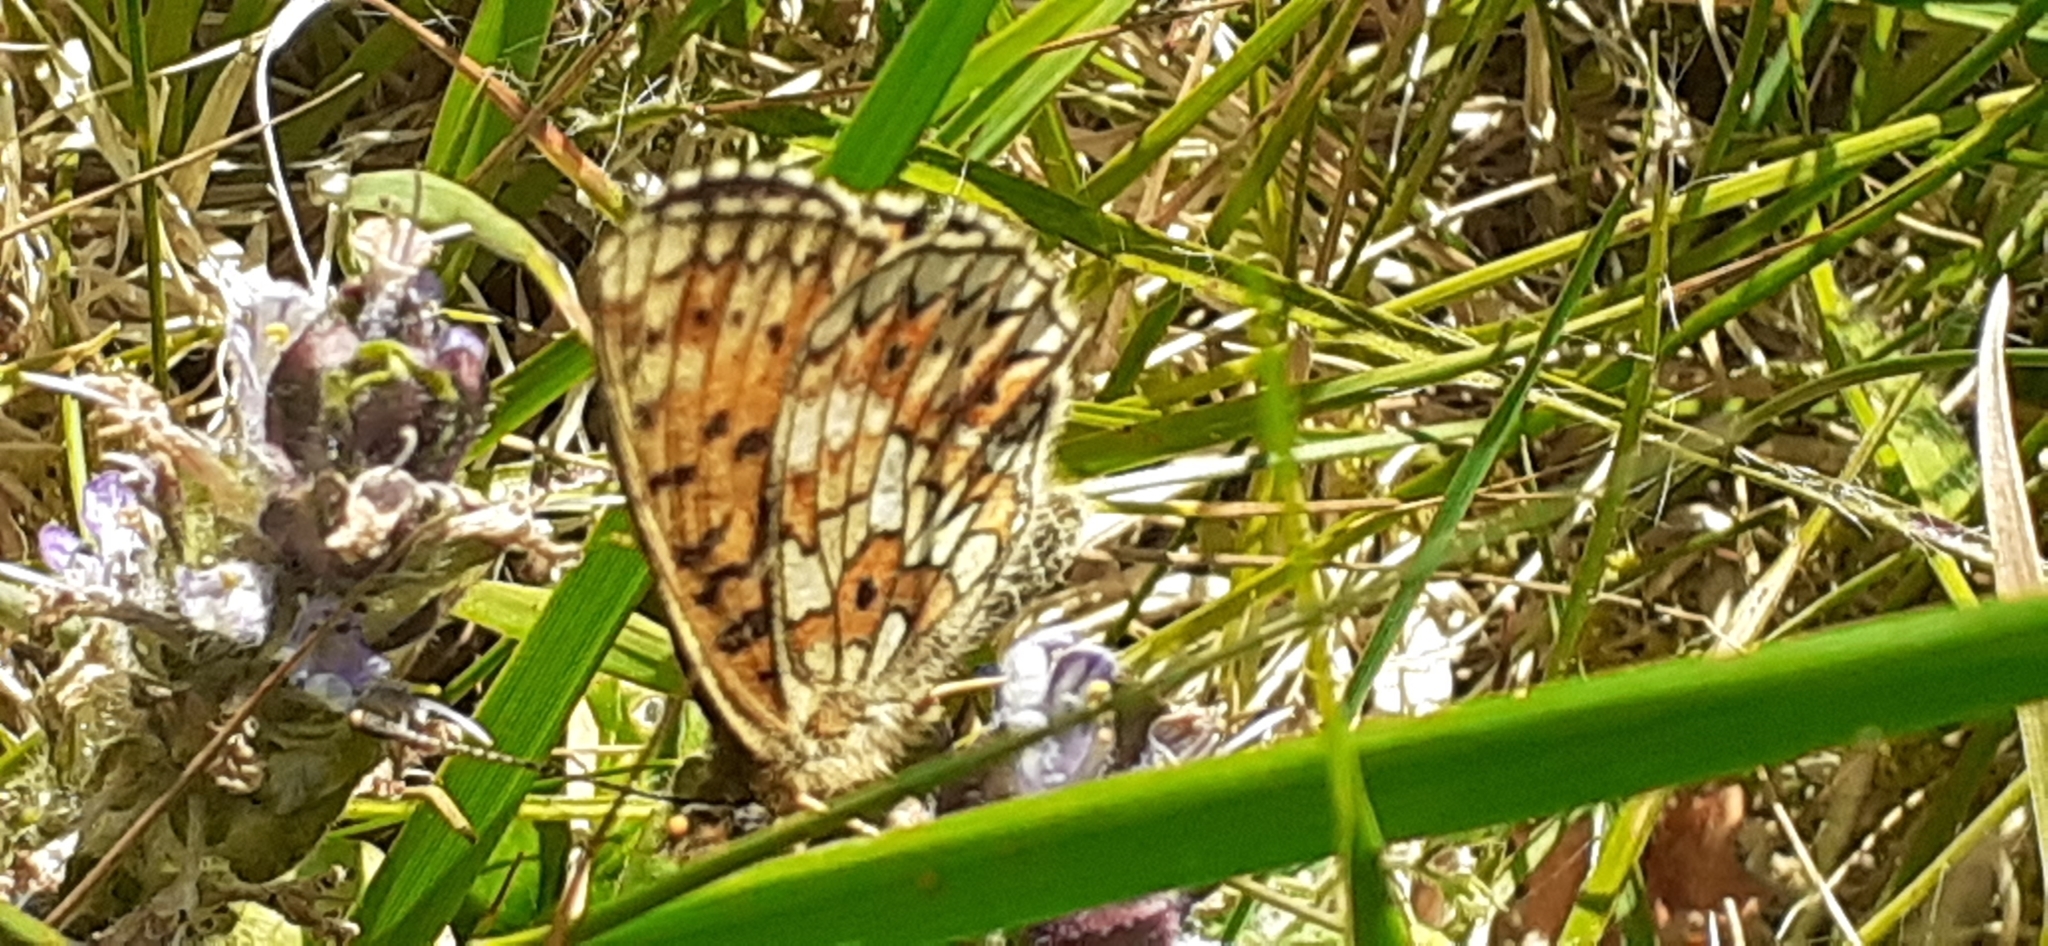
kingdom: Animalia
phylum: Arthropoda
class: Insecta
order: Lepidoptera
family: Nymphalidae
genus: Boloria
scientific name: Boloria selene
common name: Small pearl-bordered fritillary
